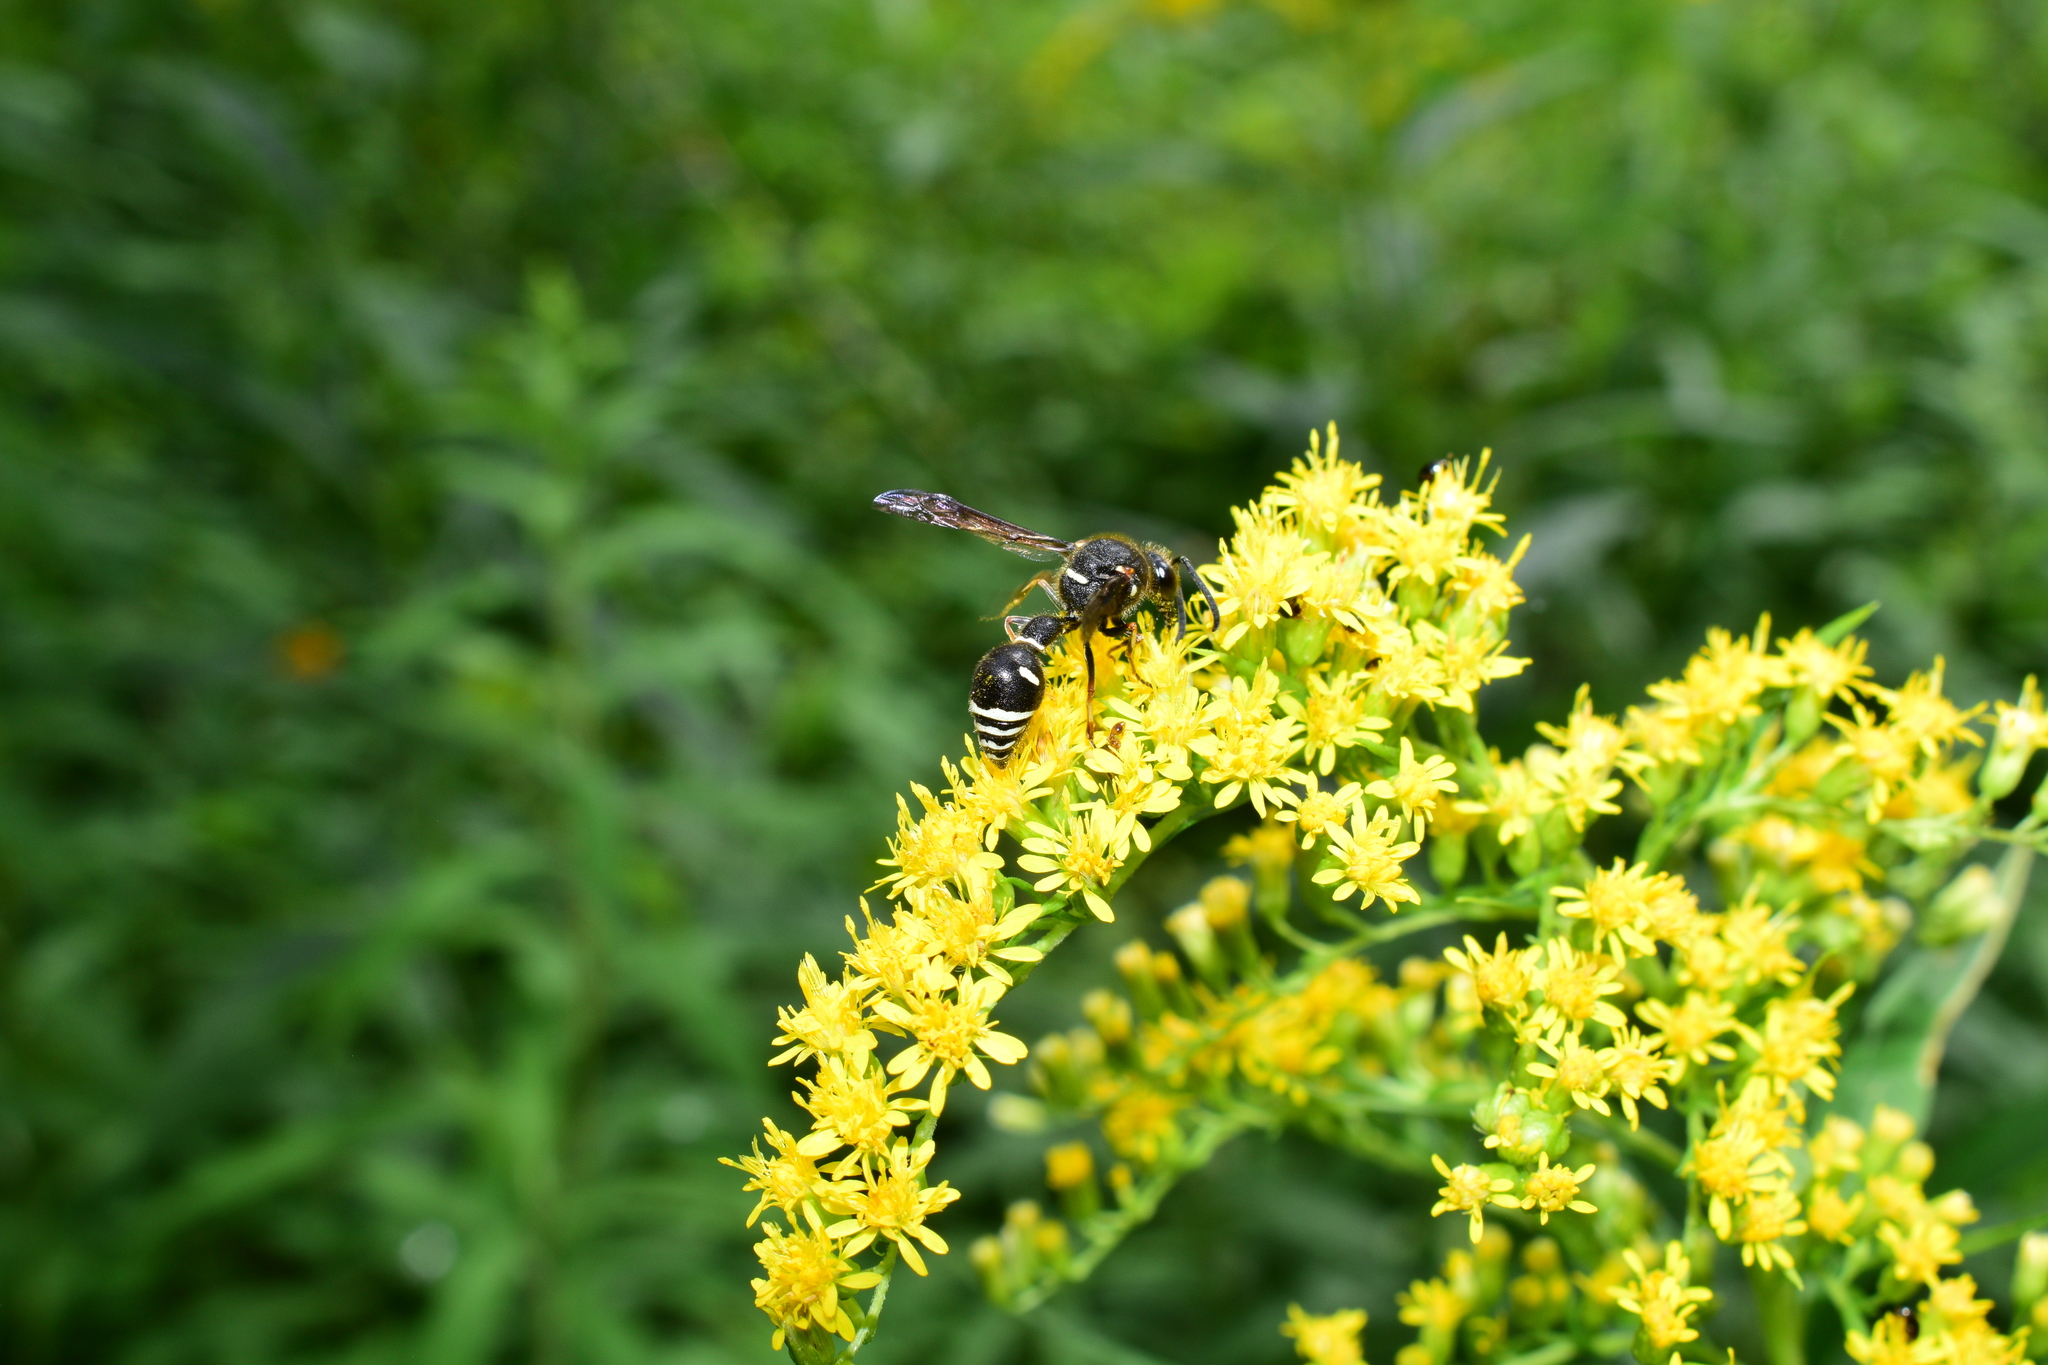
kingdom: Animalia
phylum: Arthropoda
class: Insecta
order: Hymenoptera
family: Vespidae
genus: Eumenes
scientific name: Eumenes crucifera
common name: Cross potter wasp
